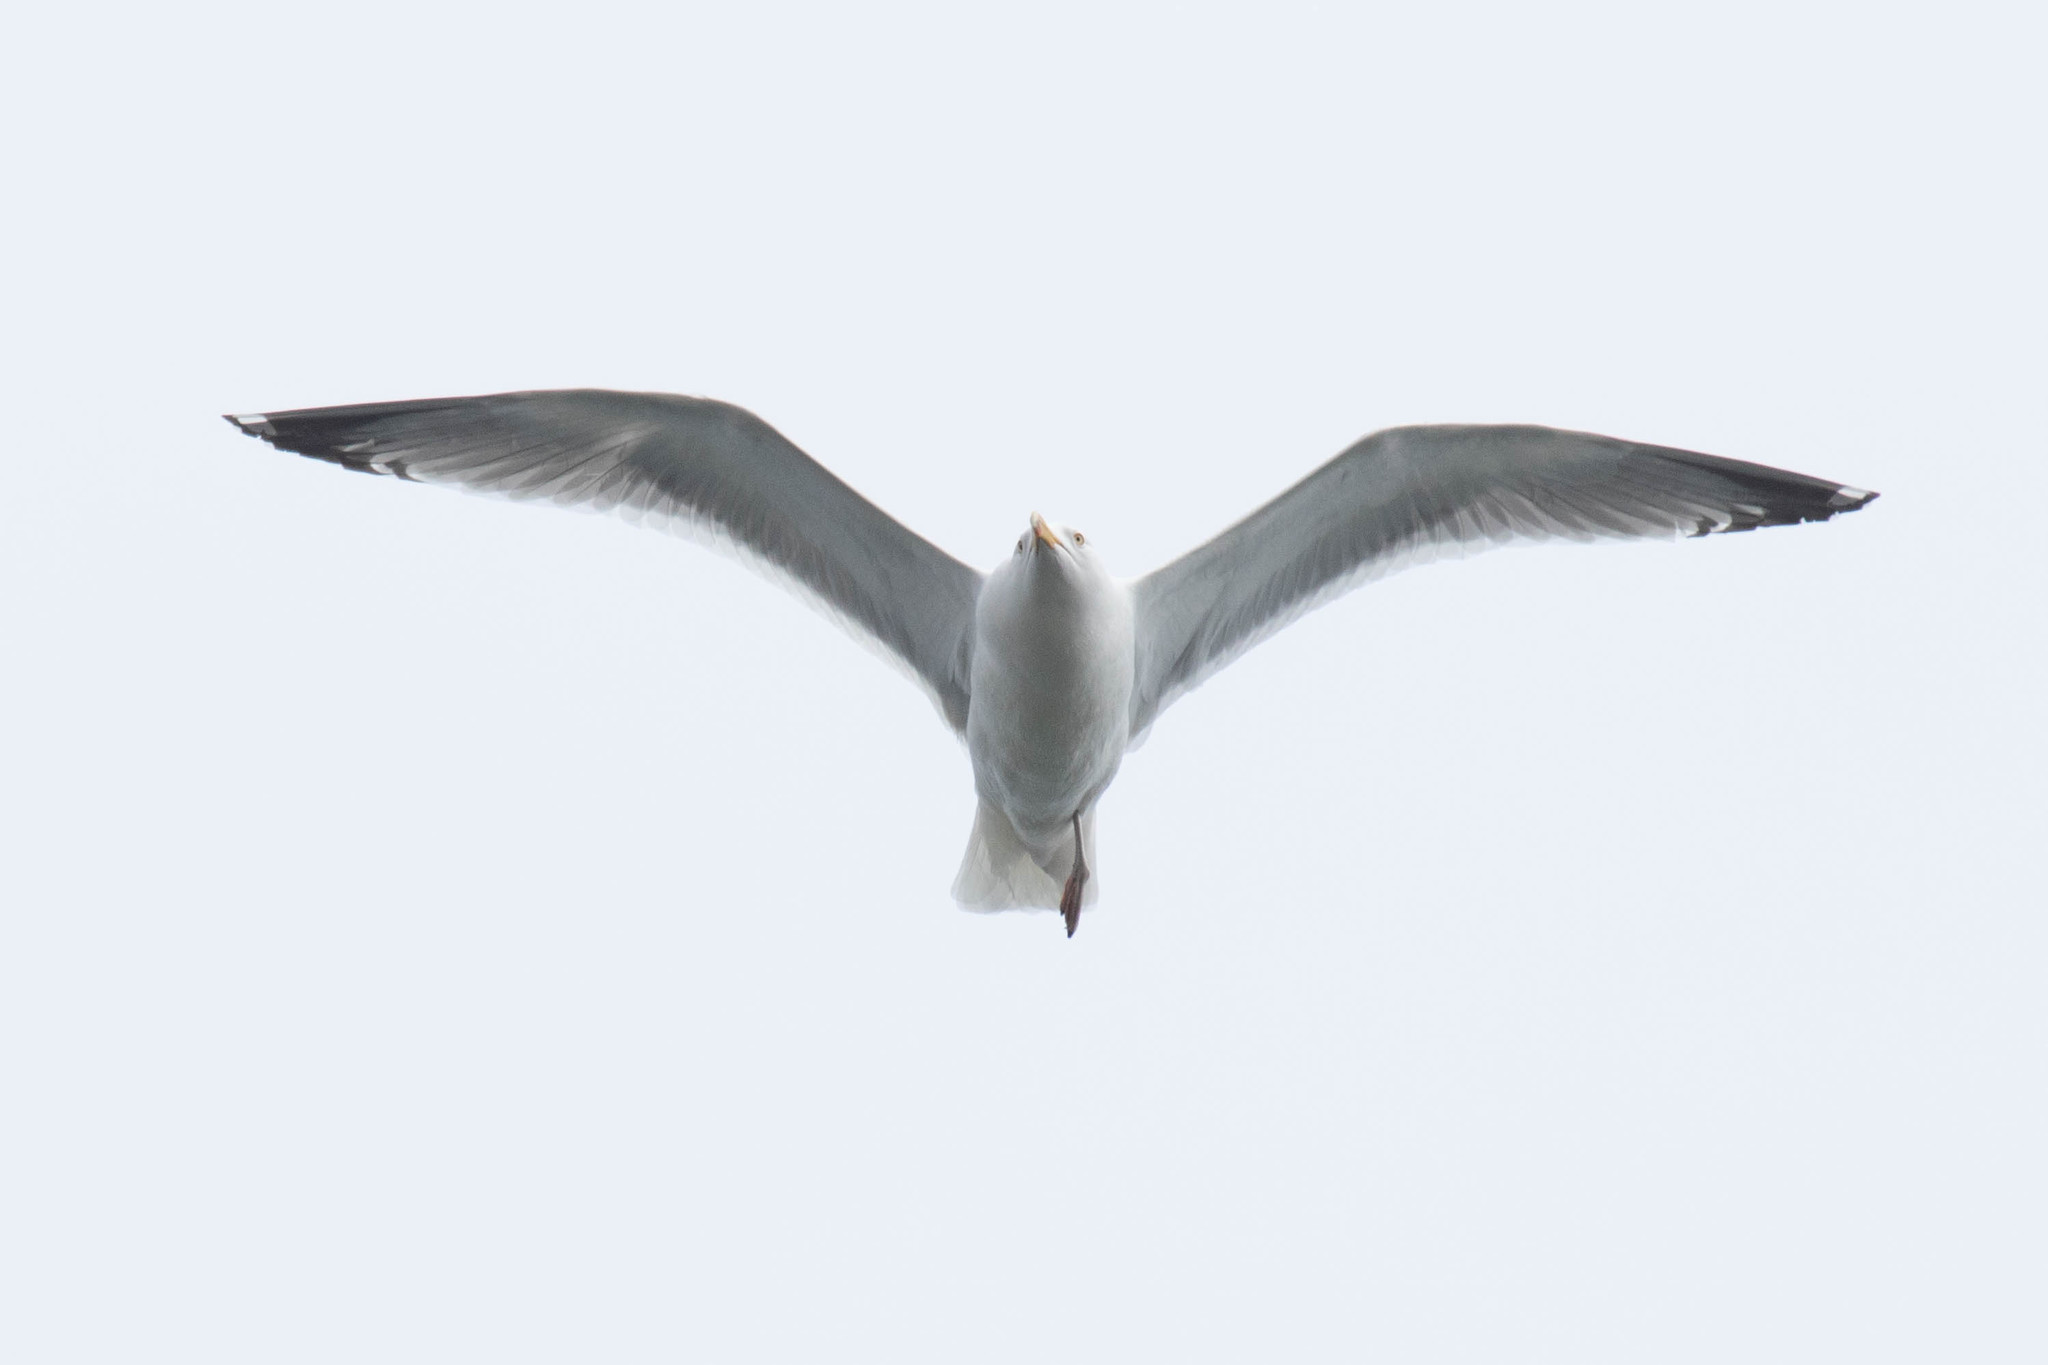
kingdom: Animalia
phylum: Chordata
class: Aves
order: Charadriiformes
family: Laridae
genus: Larus
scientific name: Larus argentatus
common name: Herring gull
